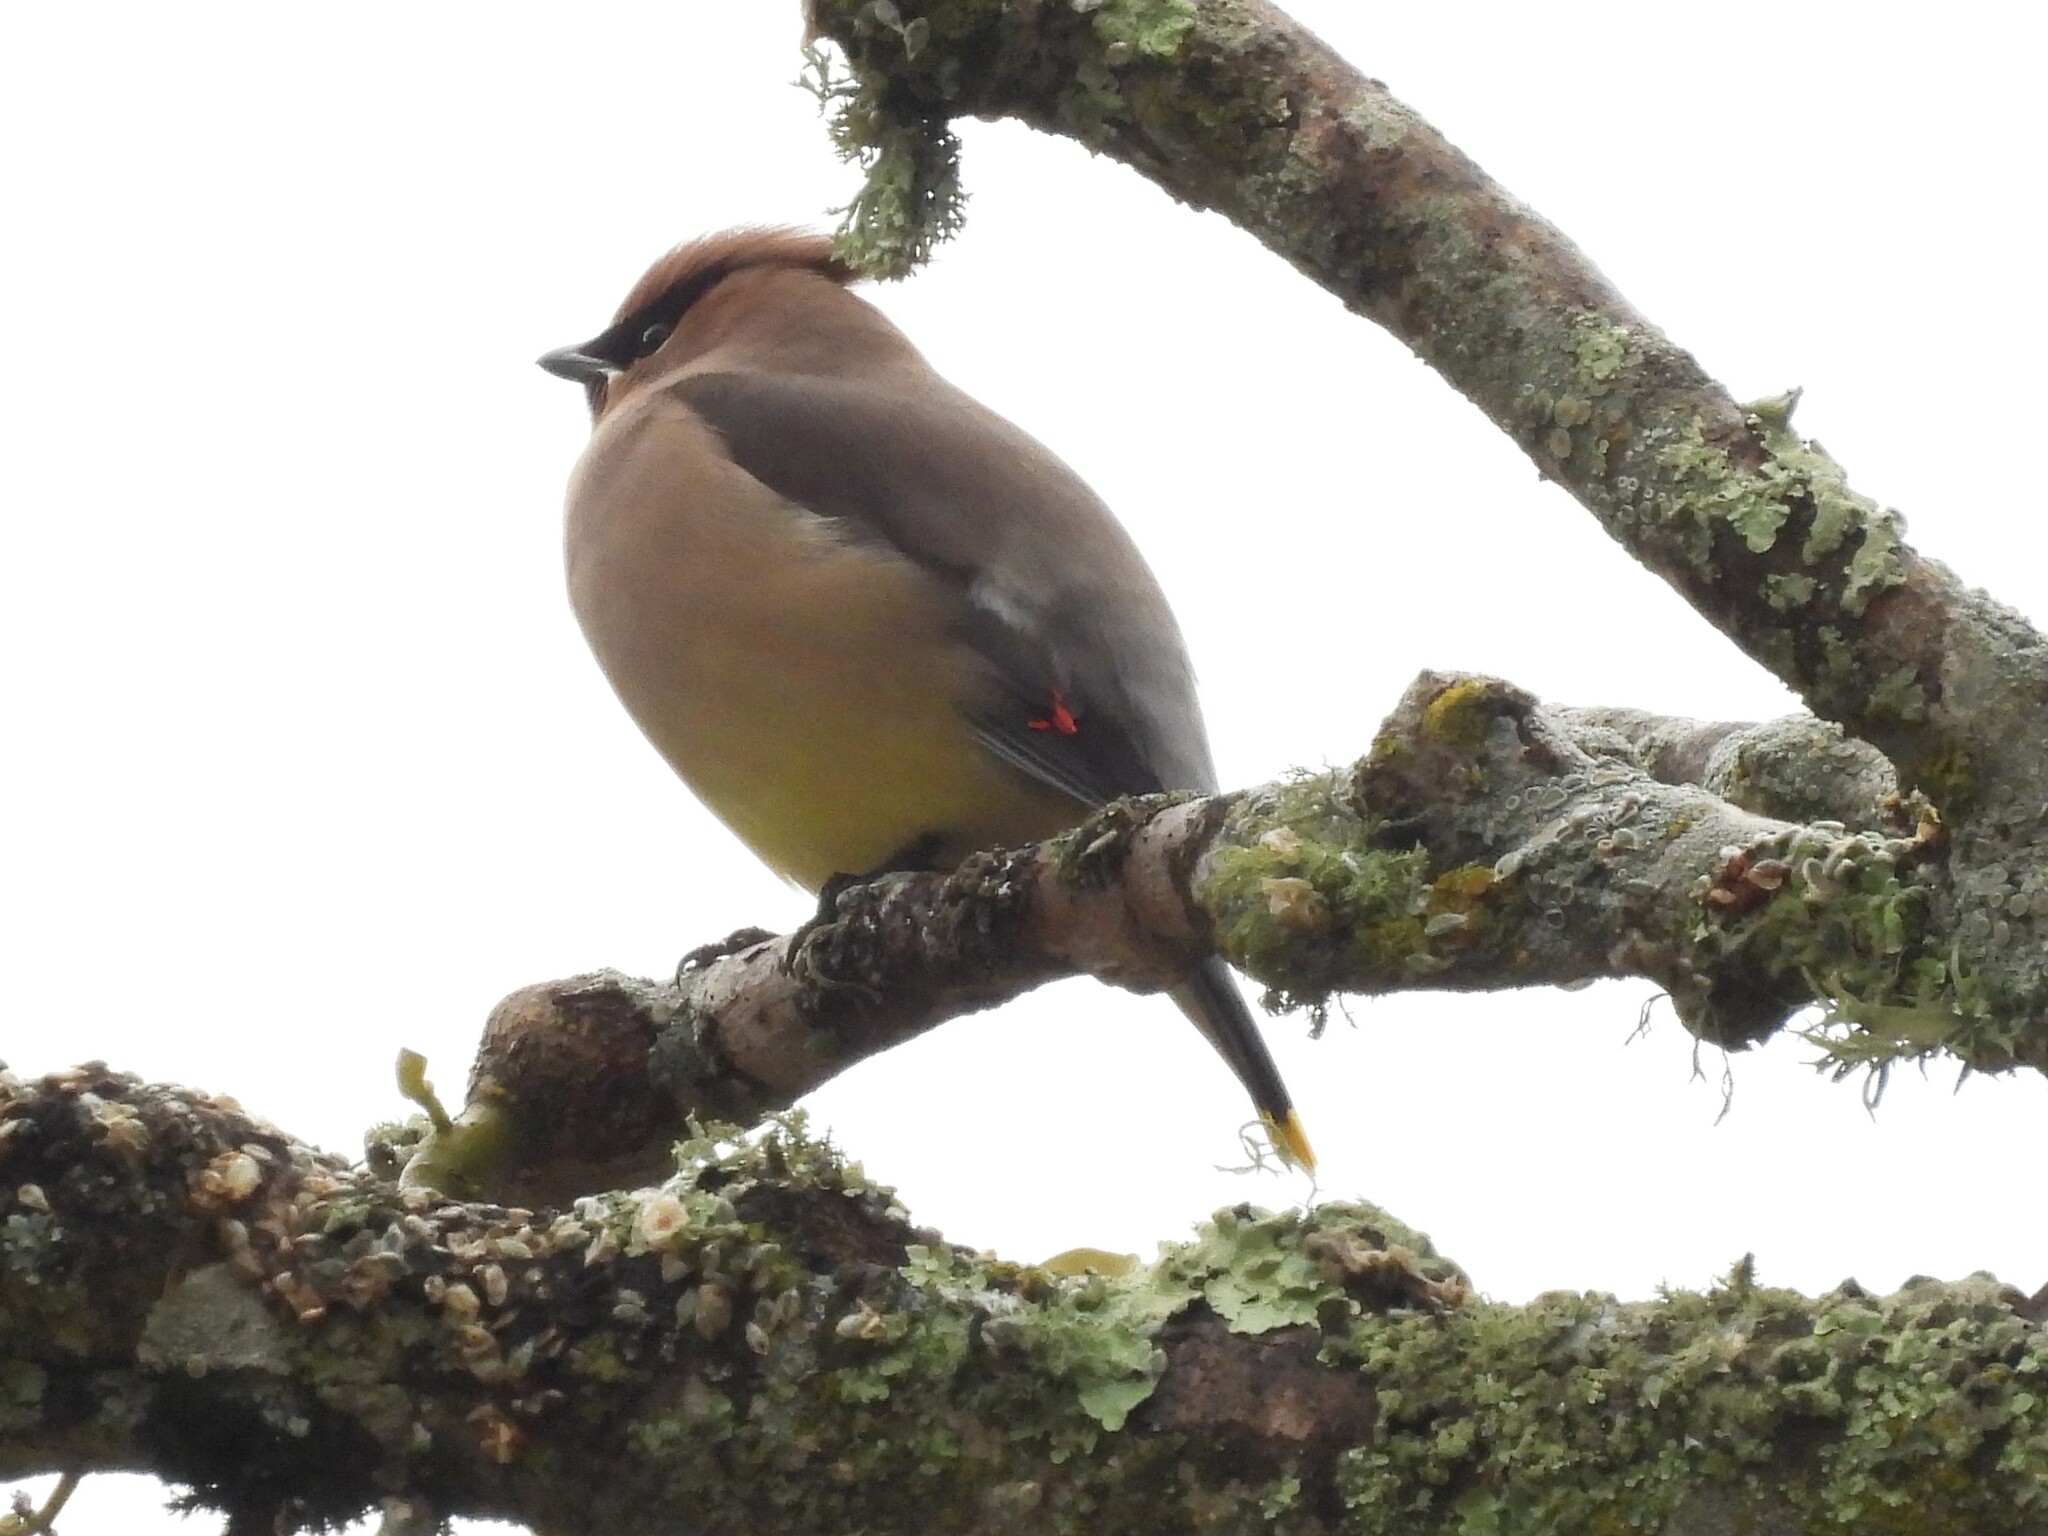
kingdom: Animalia
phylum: Chordata
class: Aves
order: Passeriformes
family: Bombycillidae
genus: Bombycilla
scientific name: Bombycilla cedrorum
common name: Cedar waxwing
